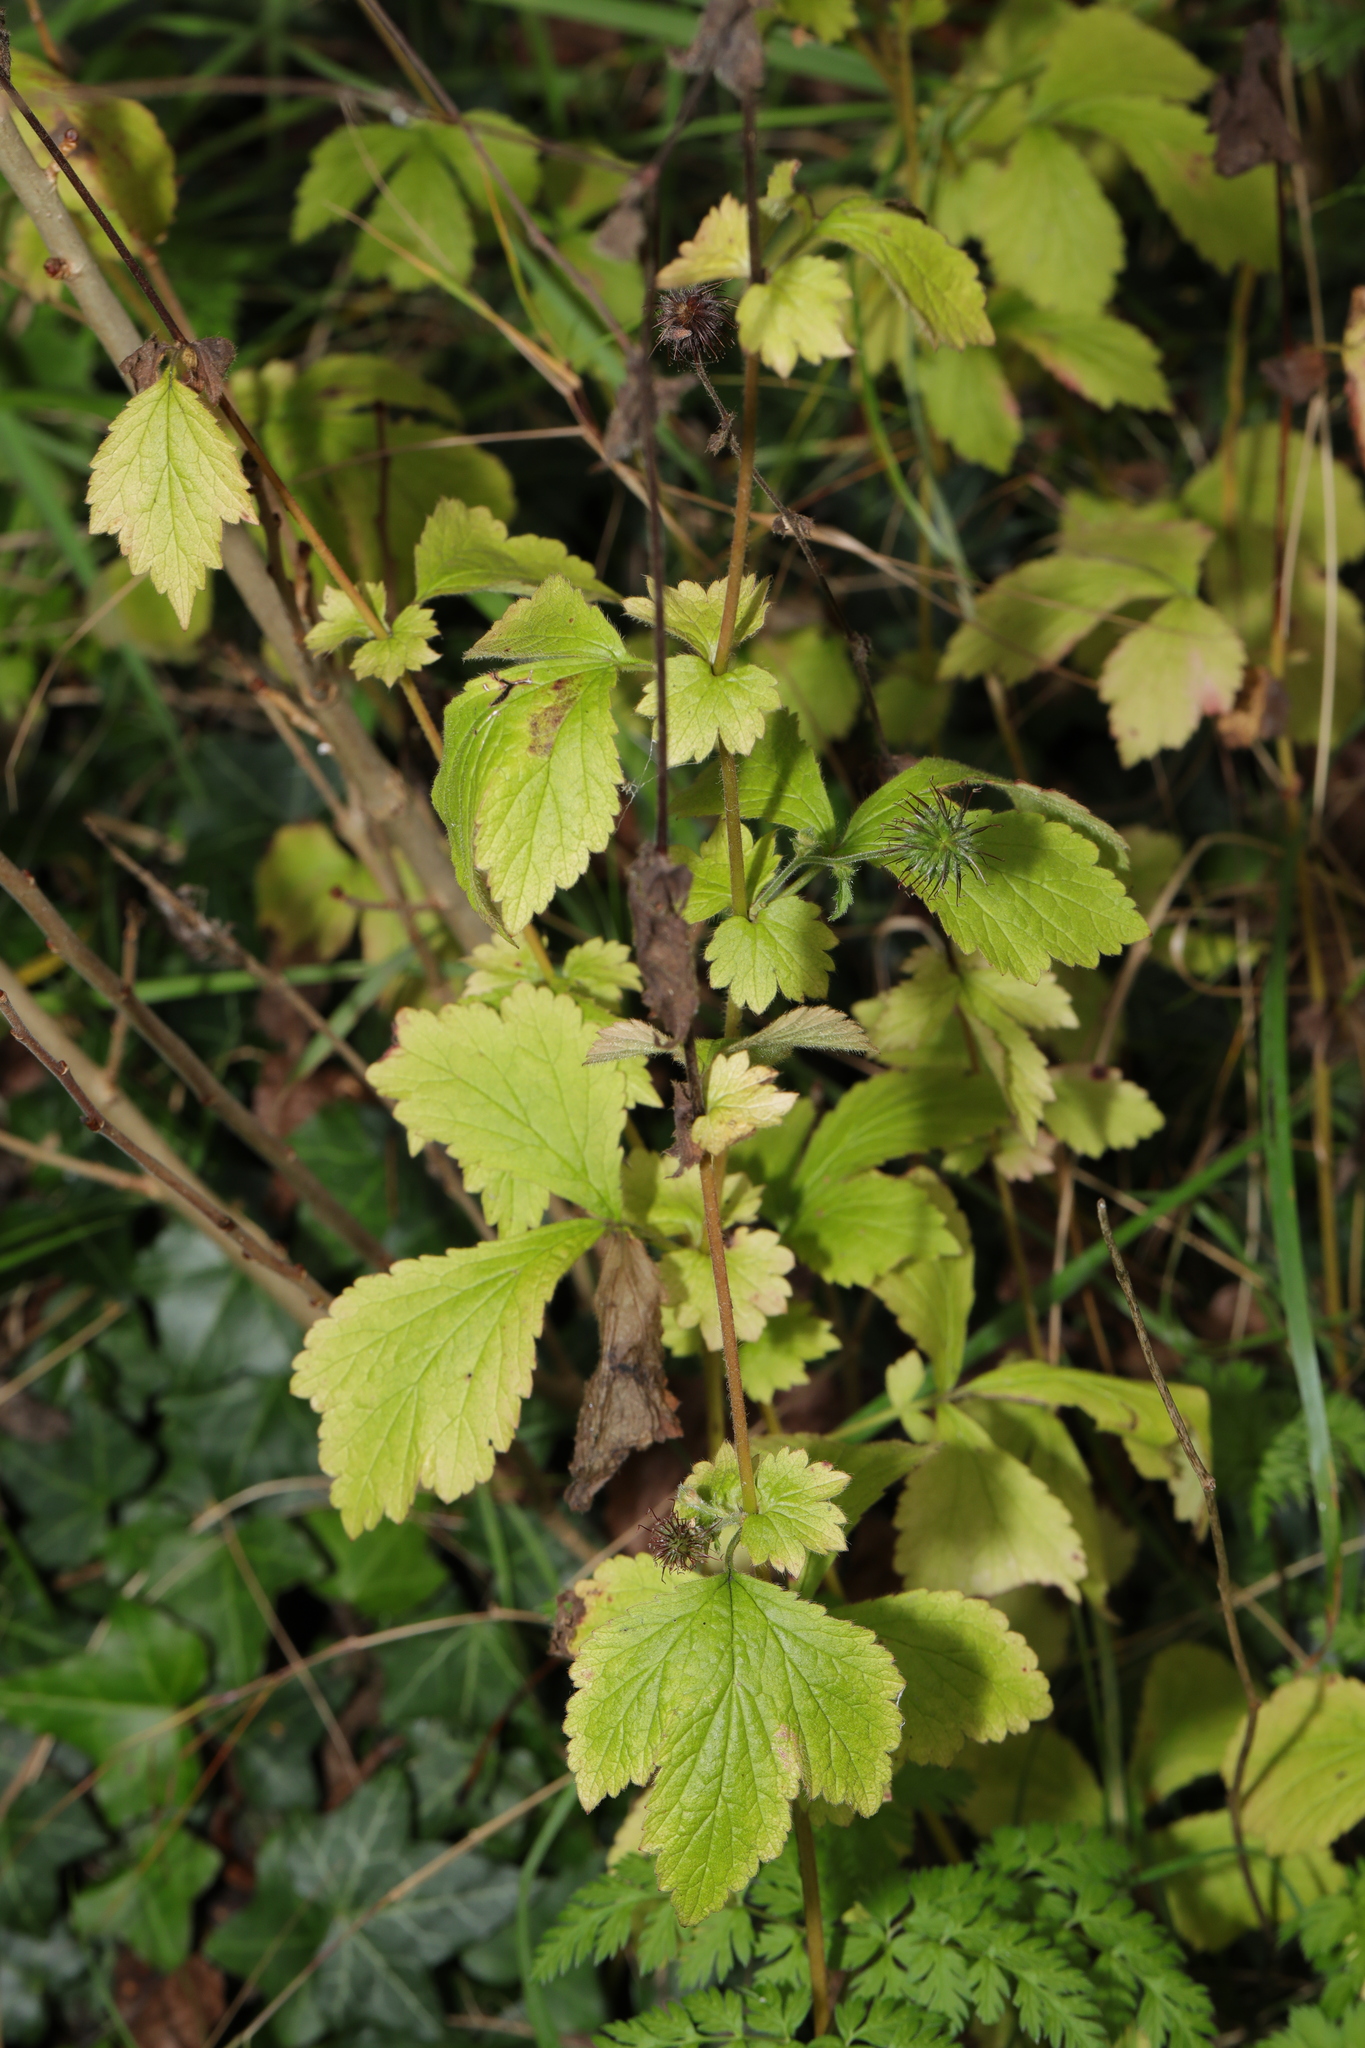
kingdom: Plantae
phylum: Tracheophyta
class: Magnoliopsida
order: Rosales
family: Rosaceae
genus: Geum
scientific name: Geum urbanum
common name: Wood avens
